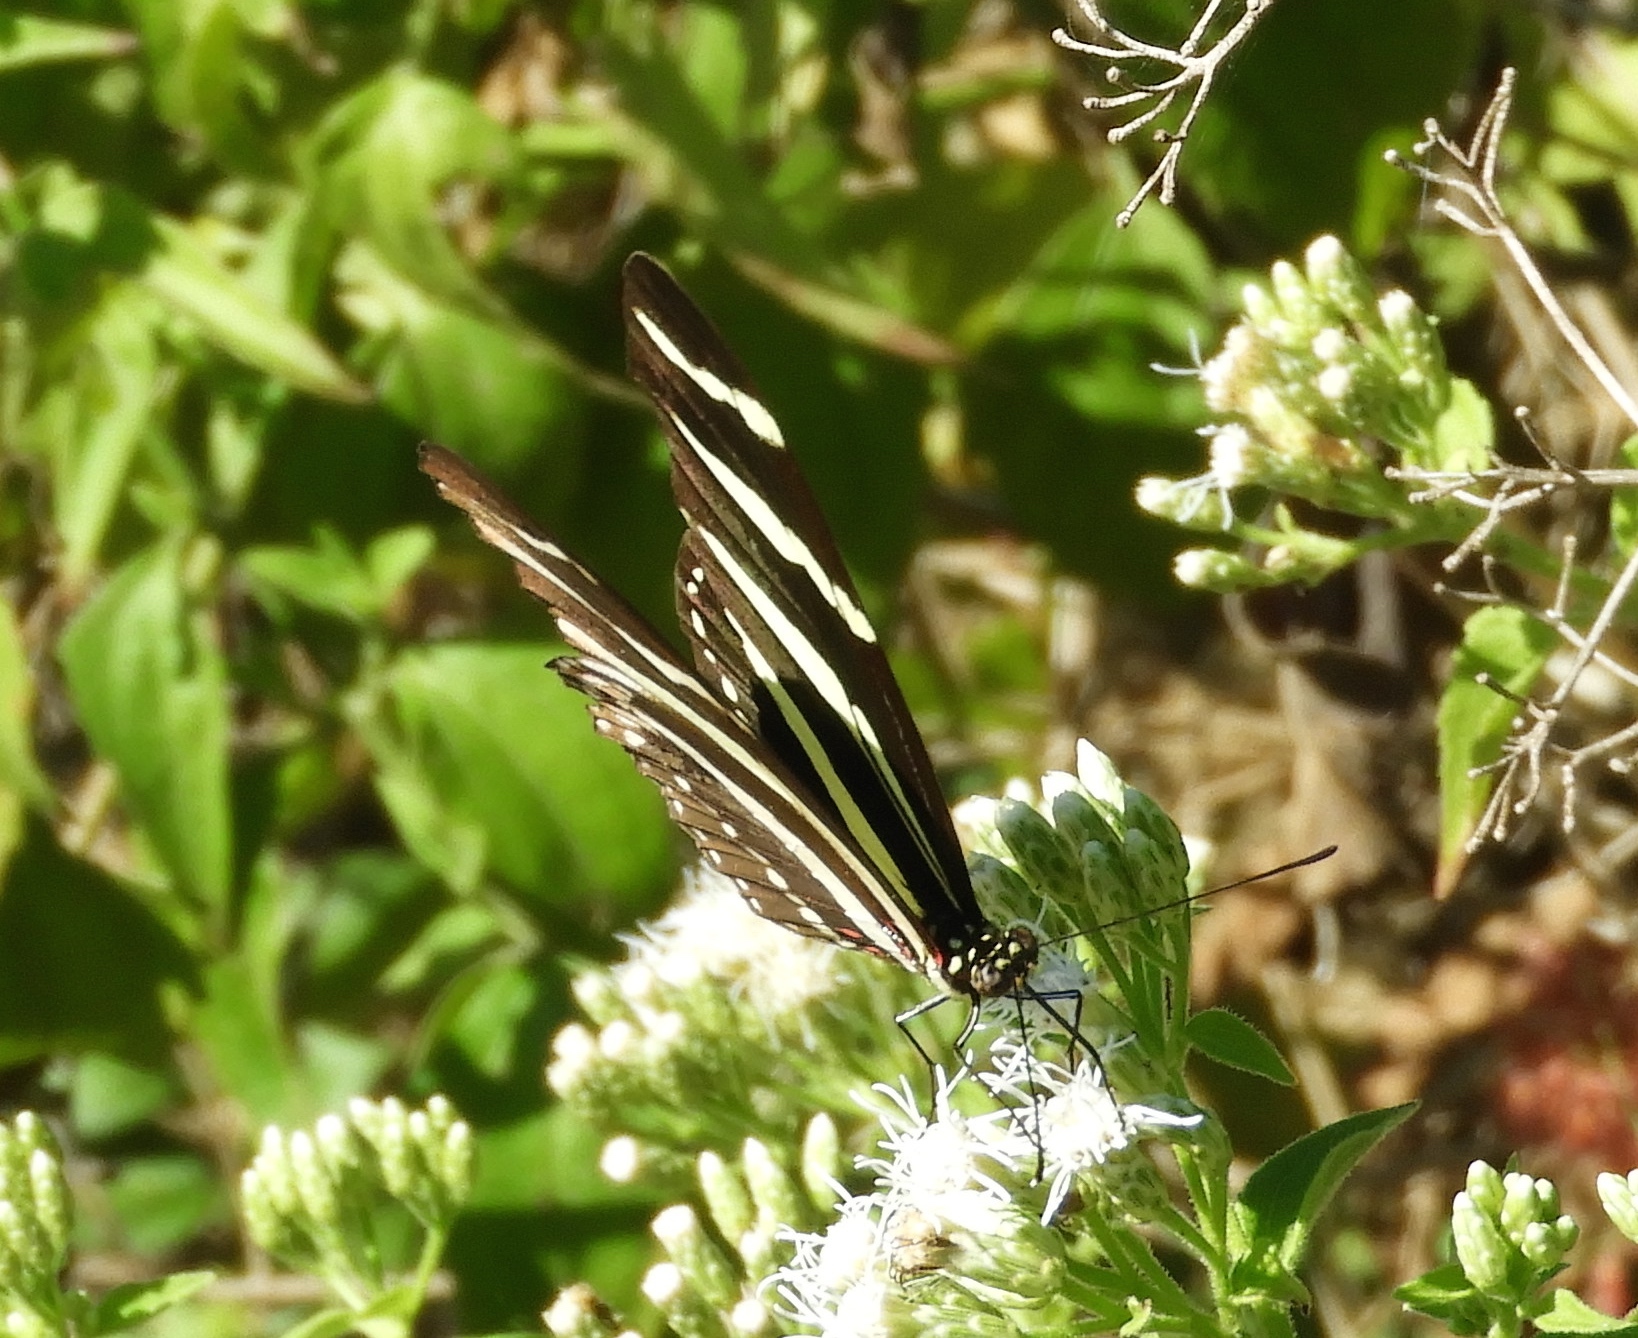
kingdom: Animalia
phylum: Arthropoda
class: Insecta
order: Lepidoptera
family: Nymphalidae
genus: Heliconius
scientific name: Heliconius charithonia
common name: Zebra long wing
